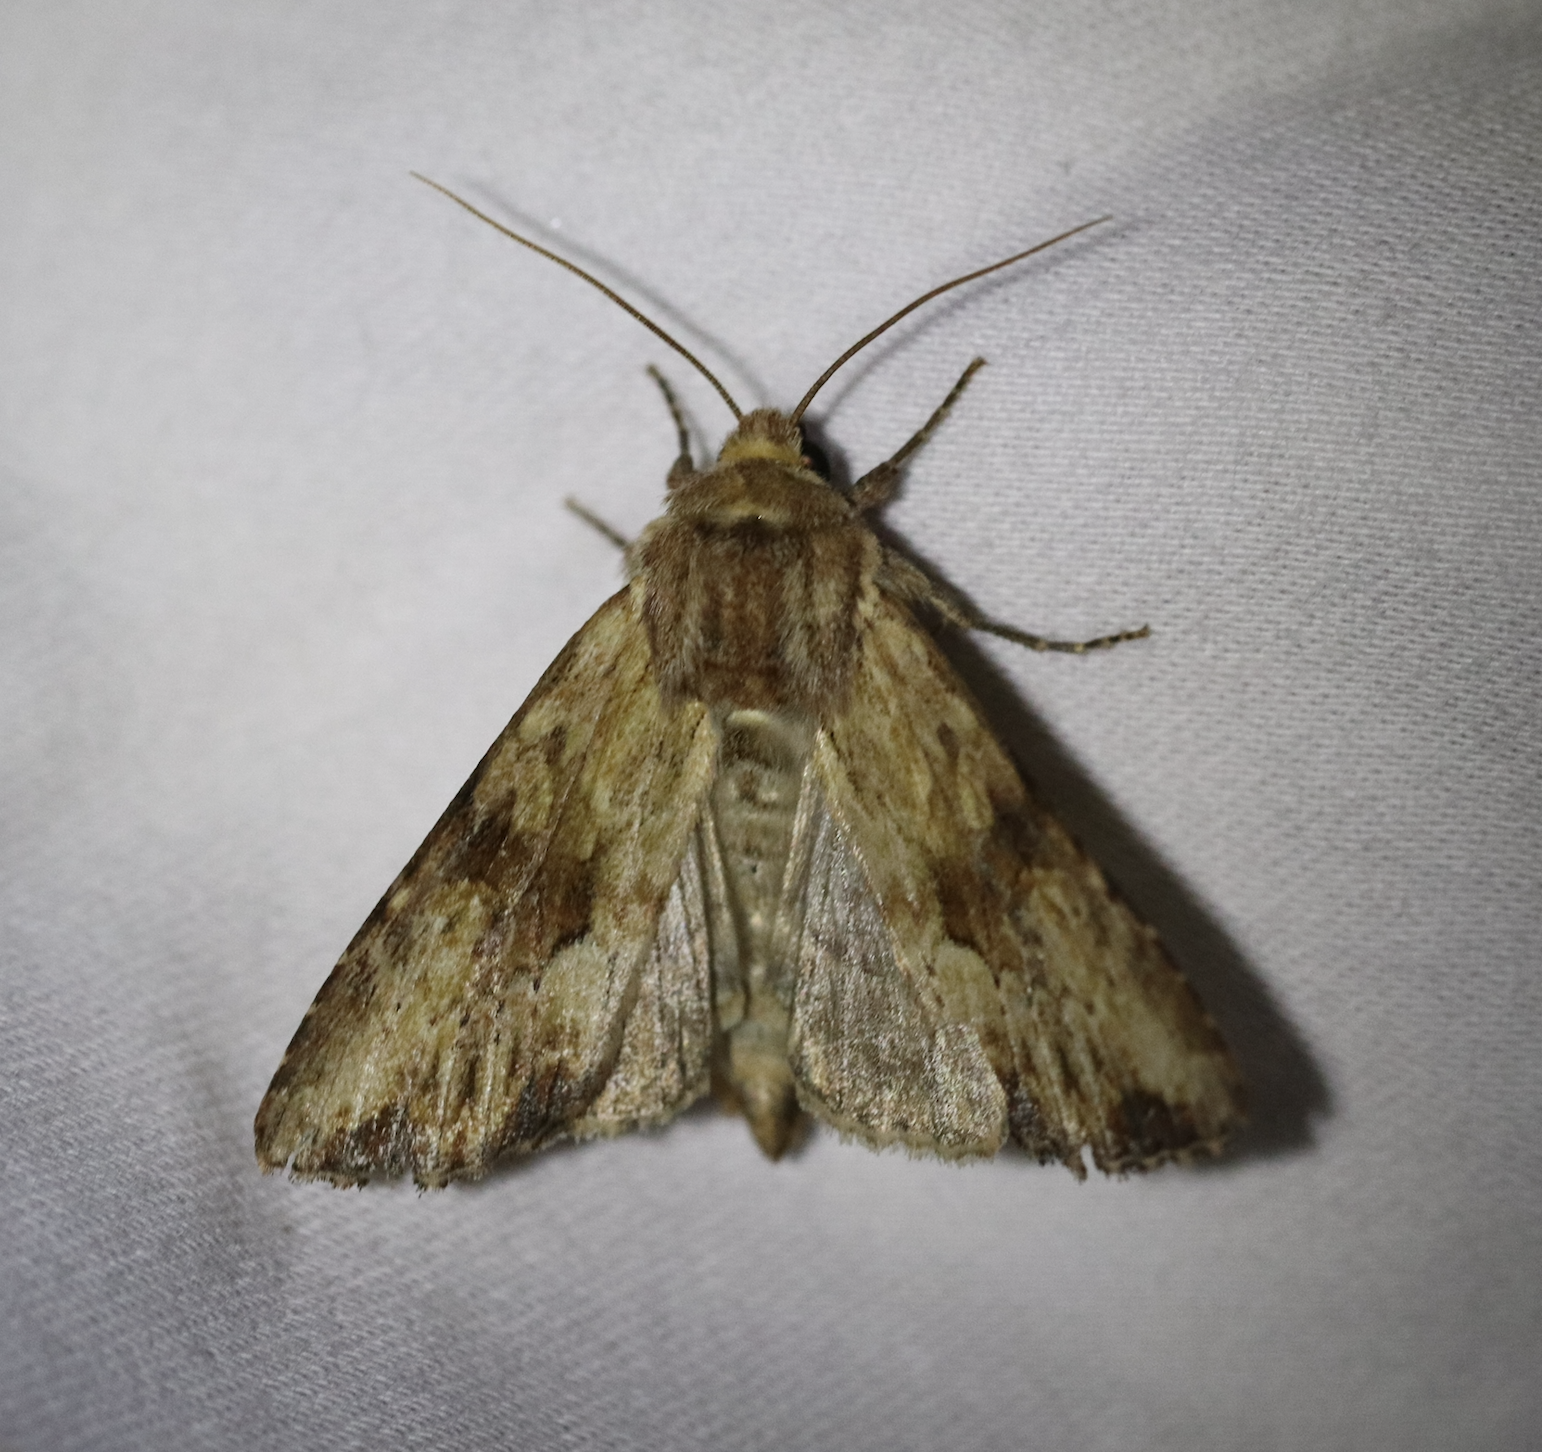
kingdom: Animalia
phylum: Arthropoda
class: Insecta
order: Lepidoptera
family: Noctuidae
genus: Apamea
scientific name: Apamea sublustris
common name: Reddish light arches
